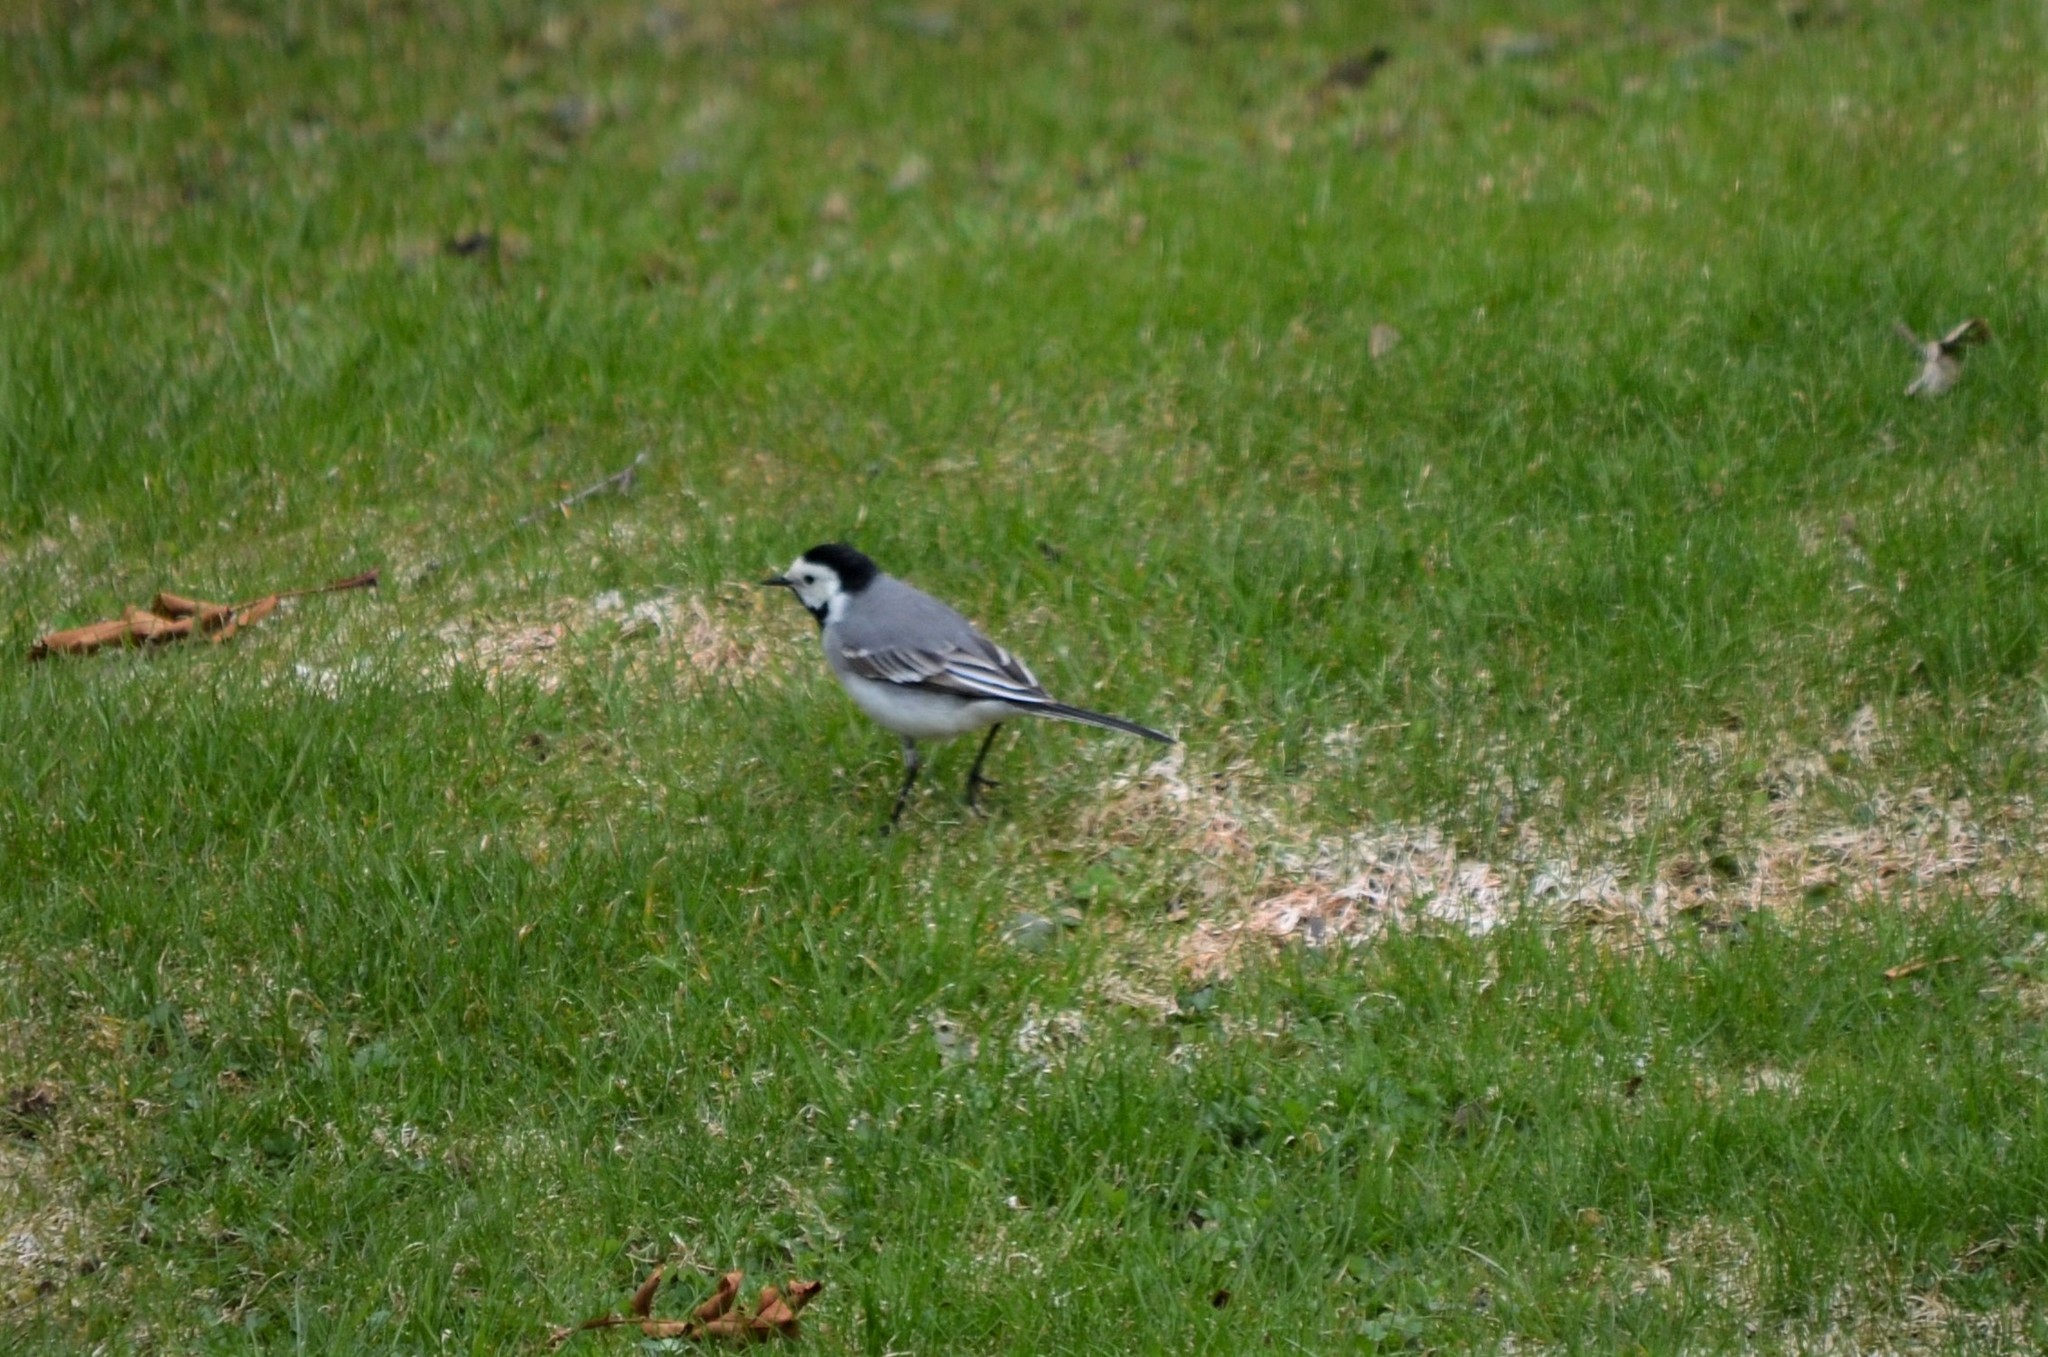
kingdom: Animalia
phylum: Chordata
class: Aves
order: Passeriformes
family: Motacillidae
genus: Motacilla
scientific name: Motacilla alba
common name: White wagtail
